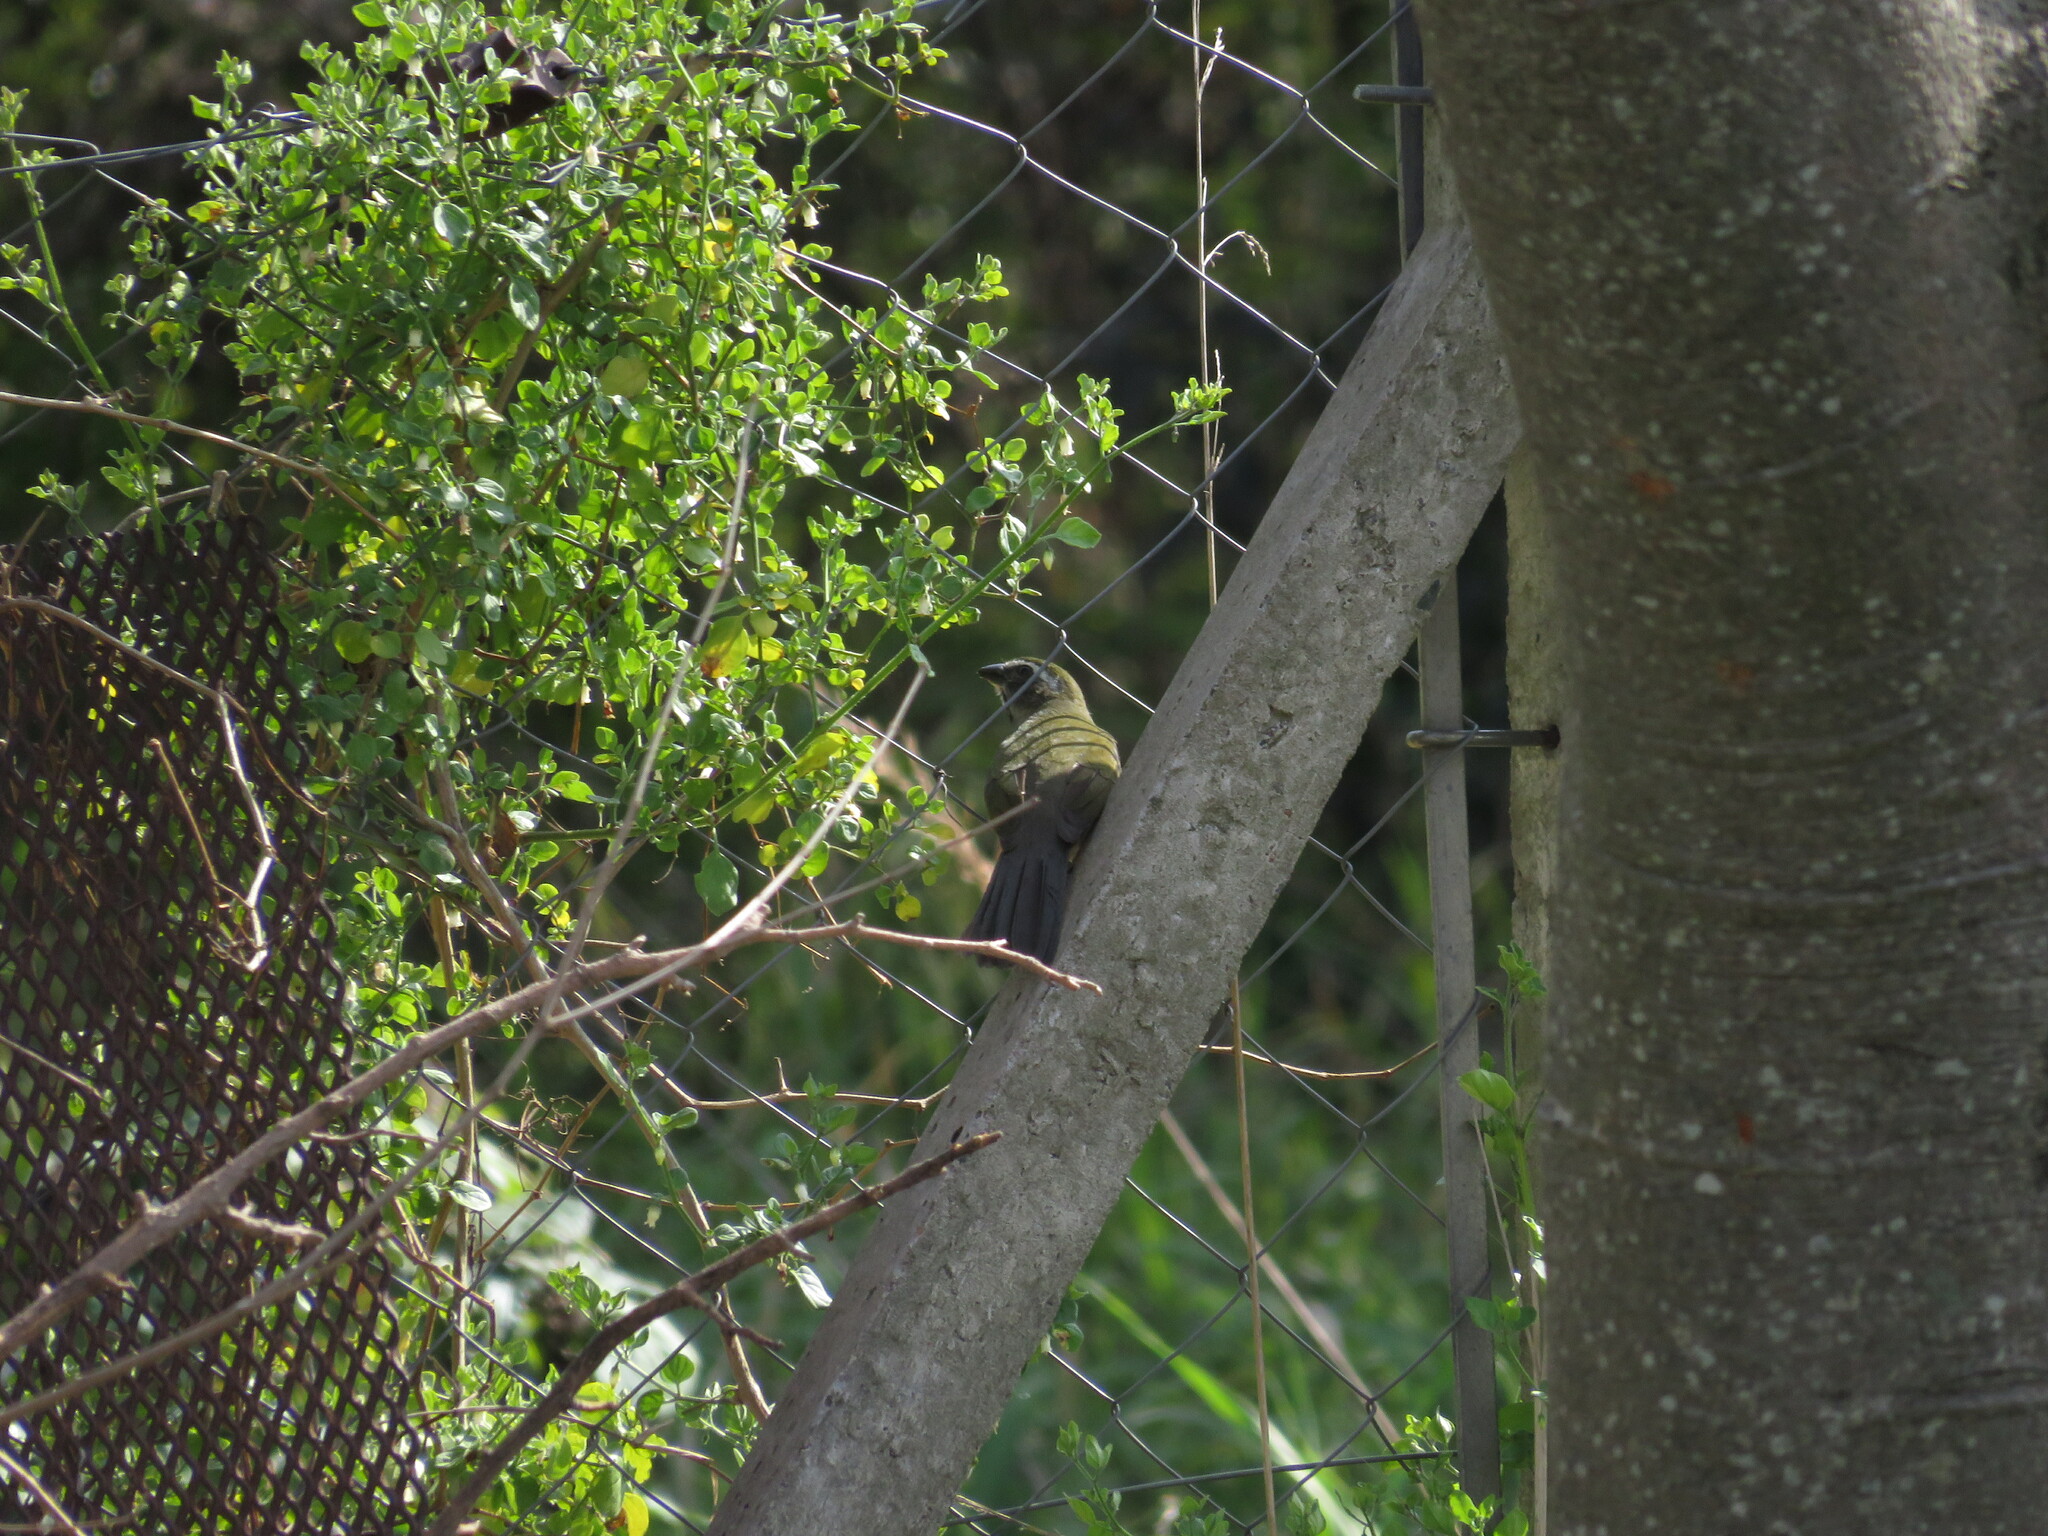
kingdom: Animalia
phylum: Chordata
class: Aves
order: Passeriformes
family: Thraupidae
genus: Saltator
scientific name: Saltator similis
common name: Green-winged saltator
